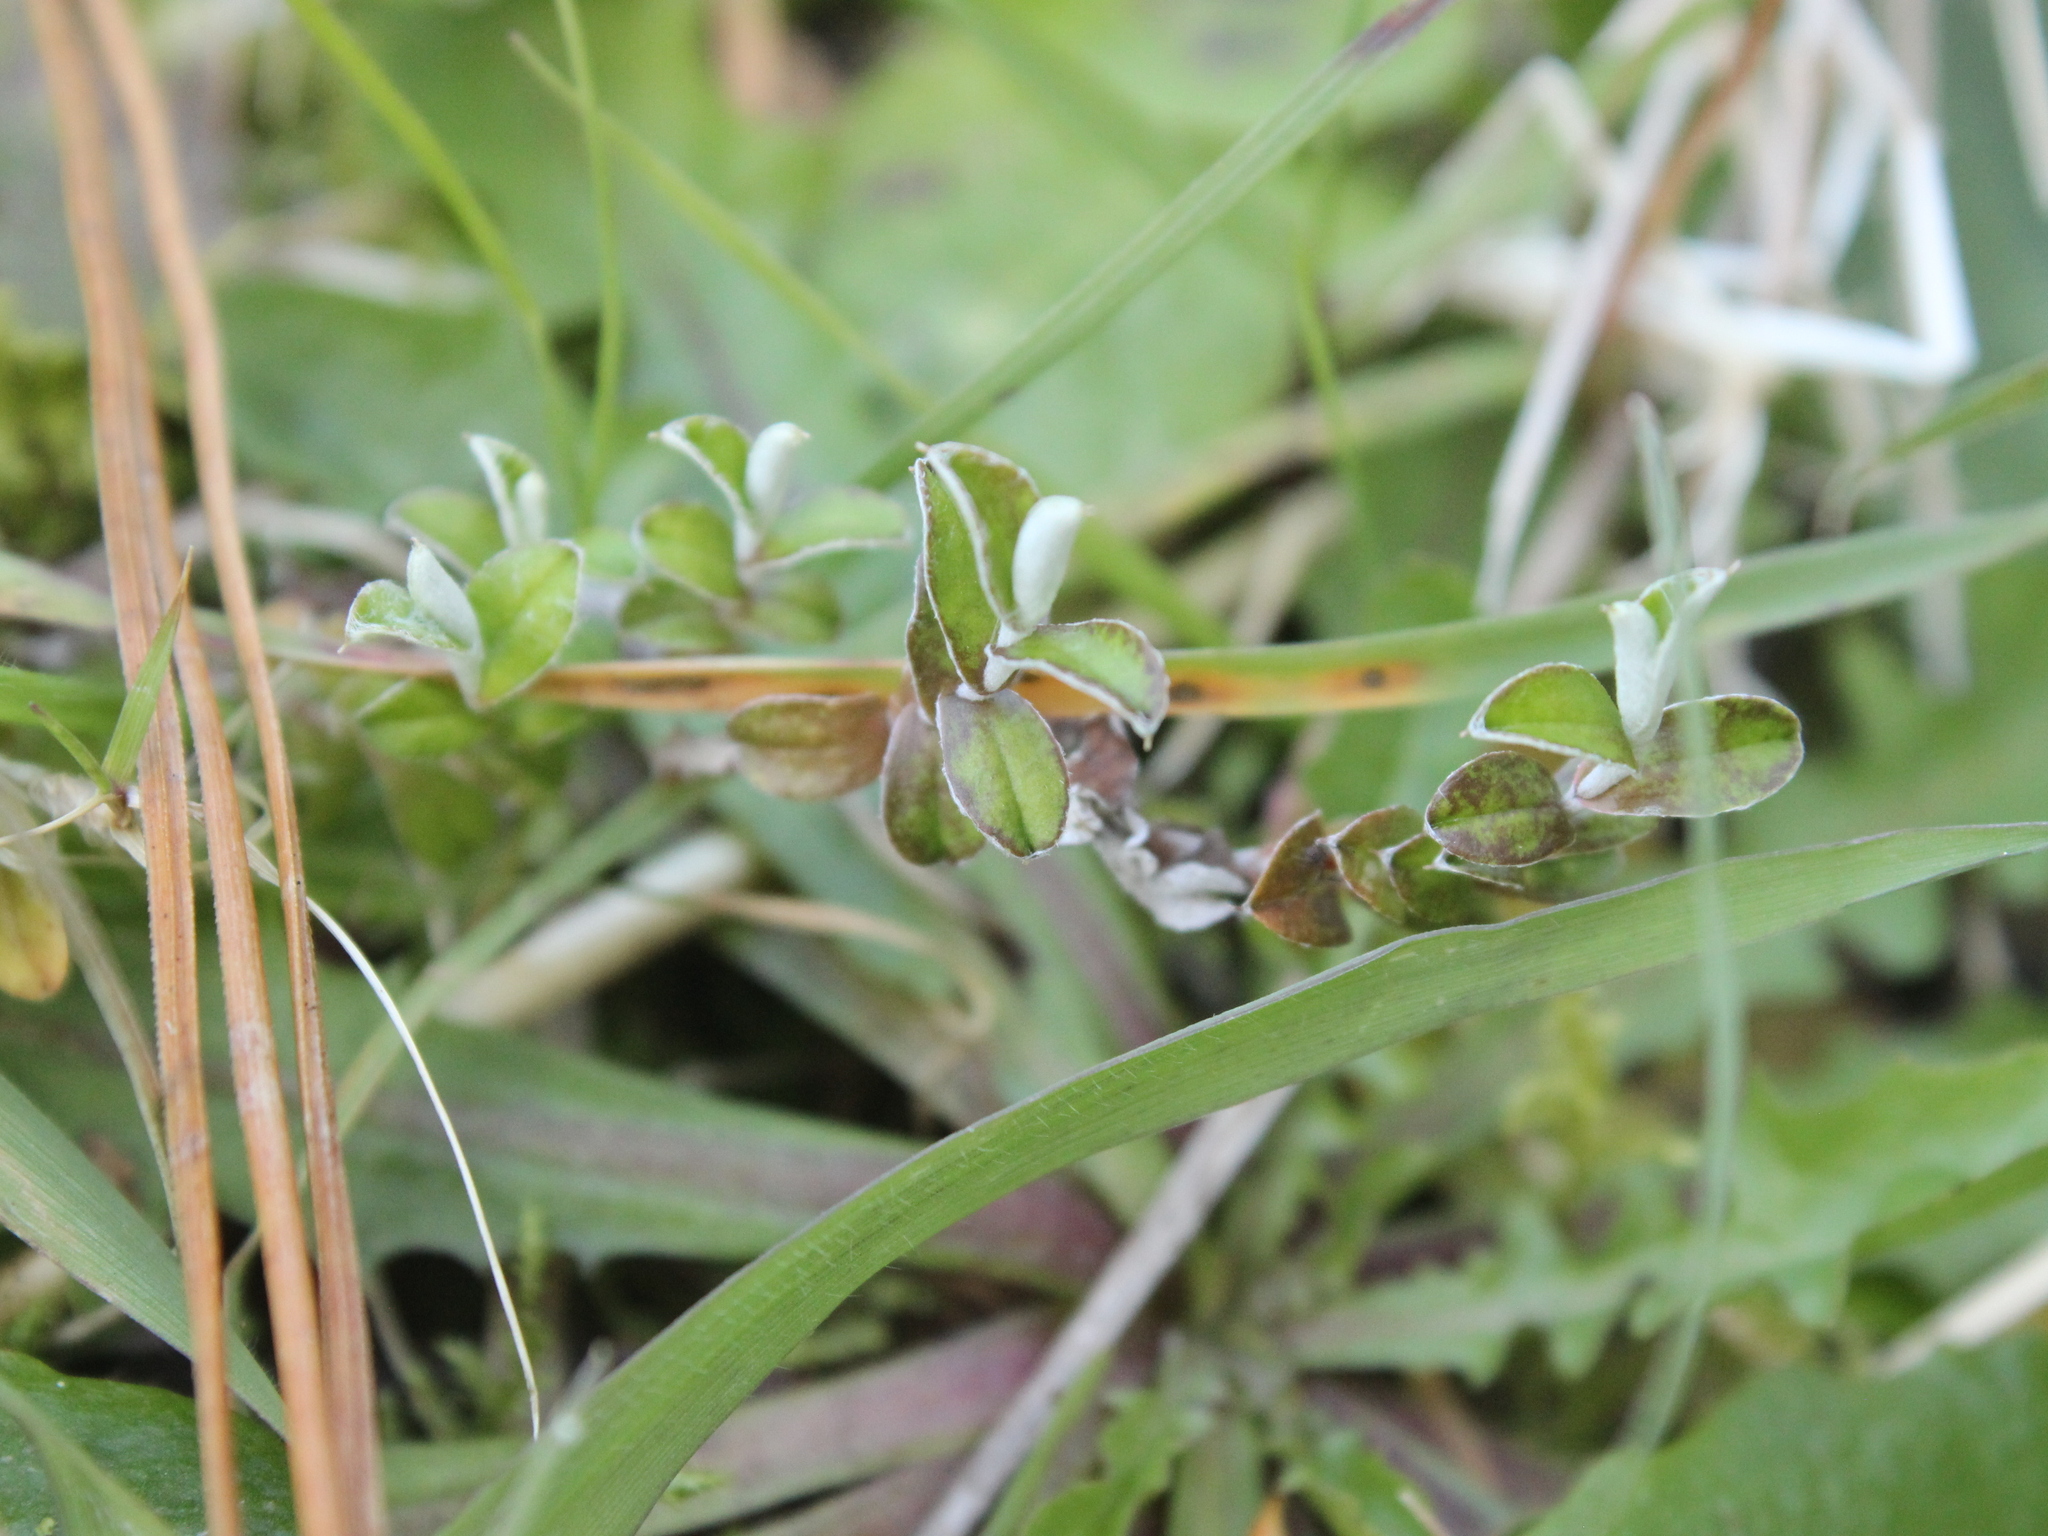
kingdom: Plantae
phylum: Tracheophyta
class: Magnoliopsida
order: Asterales
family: Asteraceae
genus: Helichrysum
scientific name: Helichrysum filicaule
